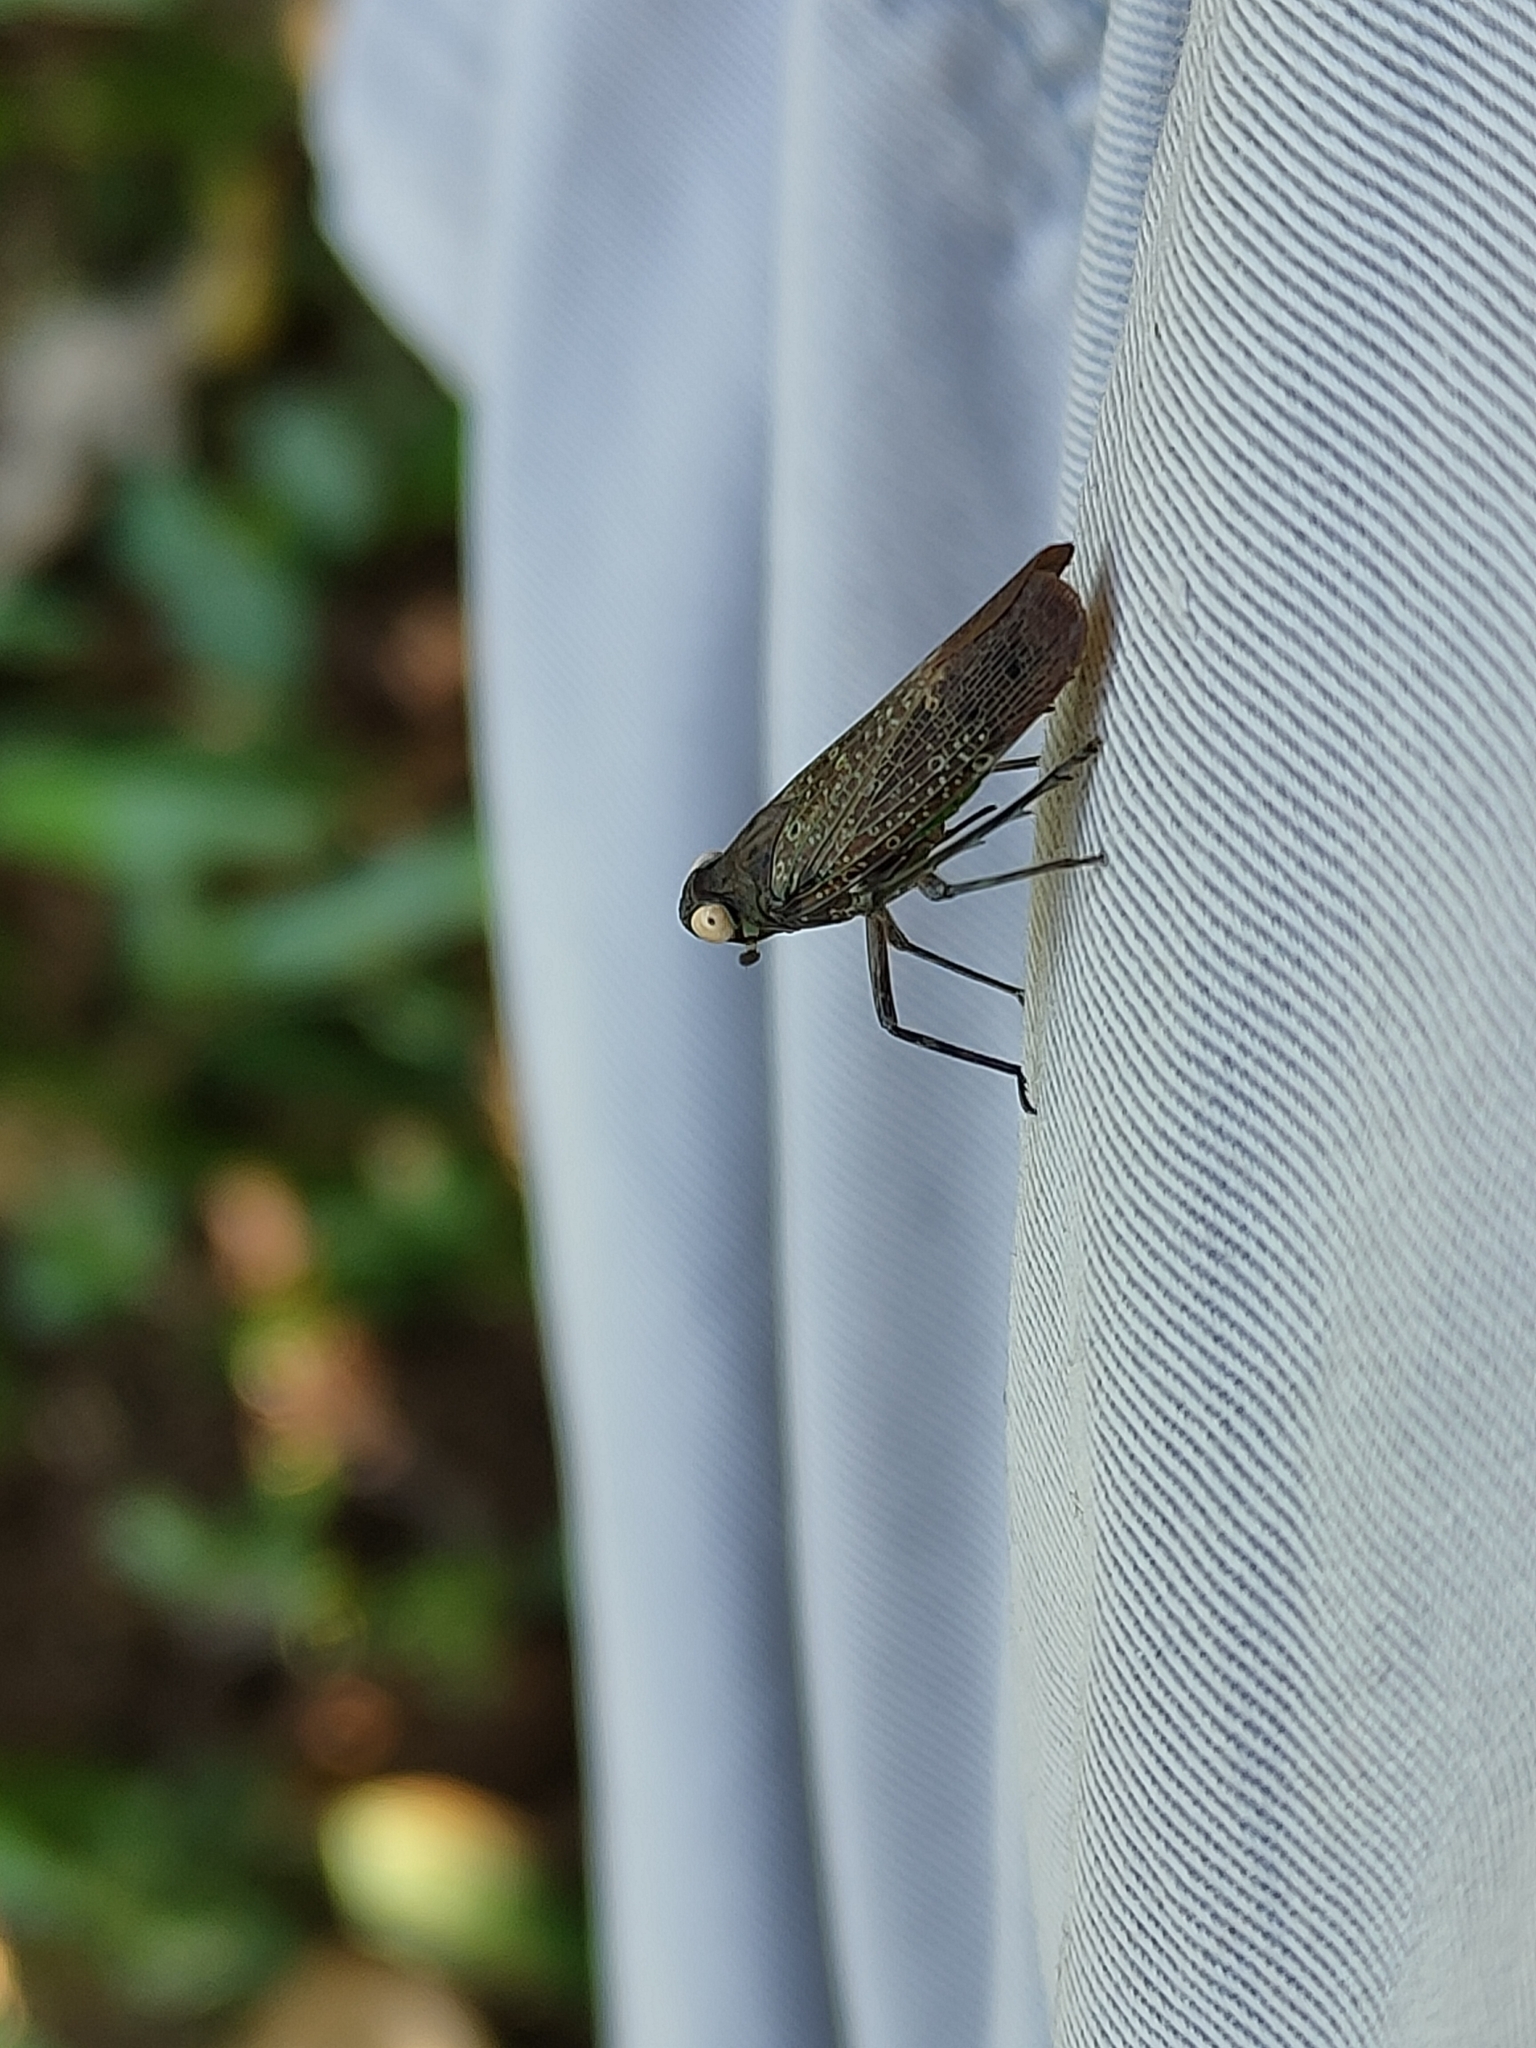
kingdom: Animalia
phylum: Arthropoda
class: Insecta
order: Hemiptera
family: Fulgoridae
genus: Desudaba
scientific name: Desudaba psittacus
